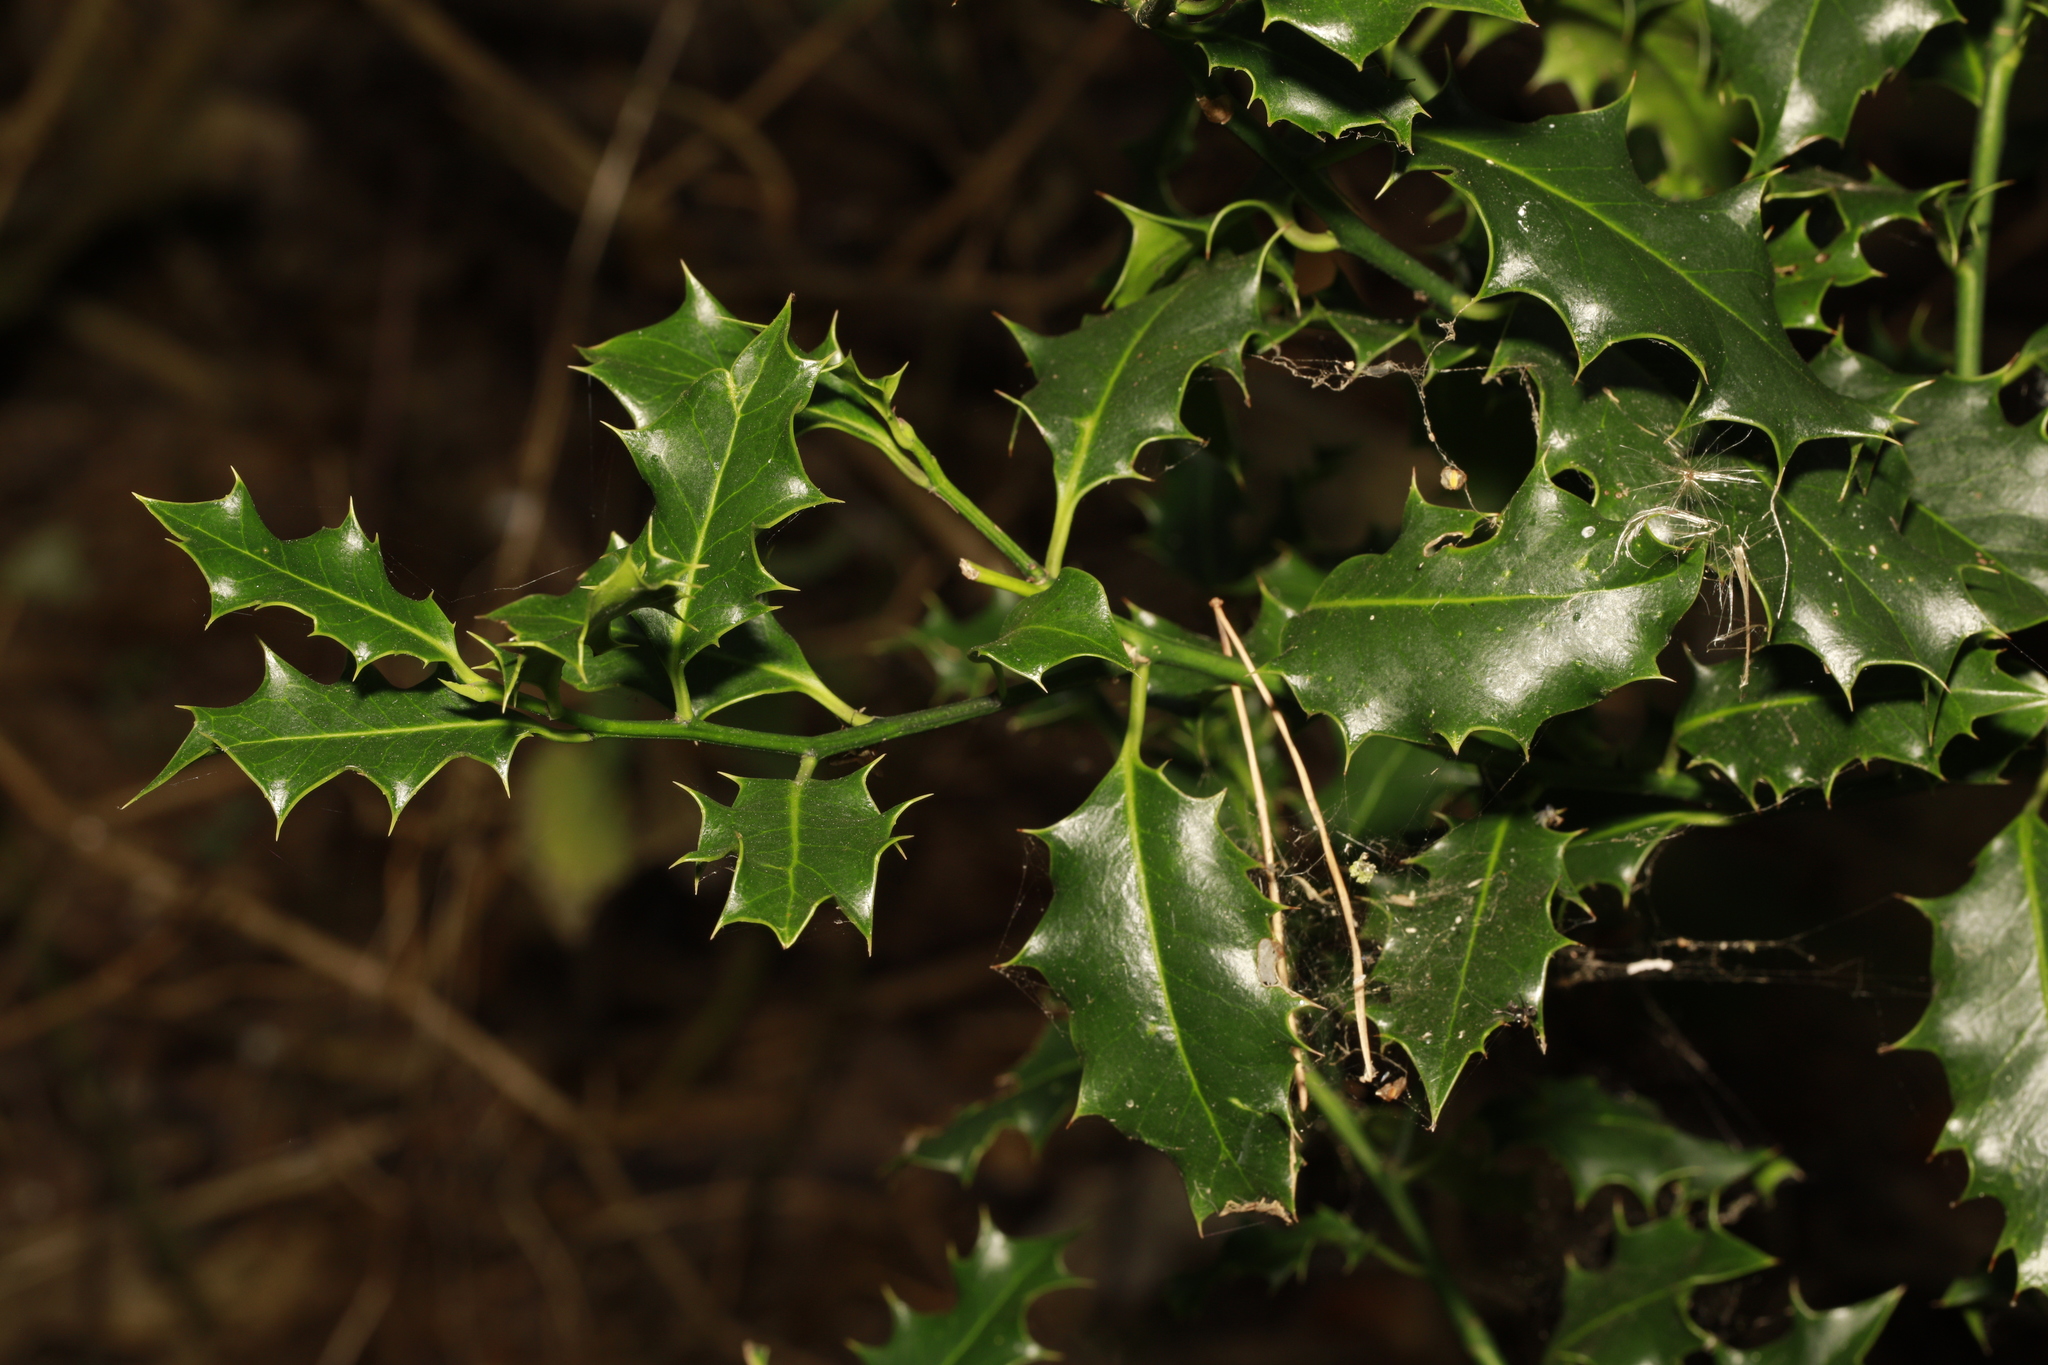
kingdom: Plantae
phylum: Tracheophyta
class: Magnoliopsida
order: Aquifoliales
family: Aquifoliaceae
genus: Ilex
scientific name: Ilex aquifolium
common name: English holly
